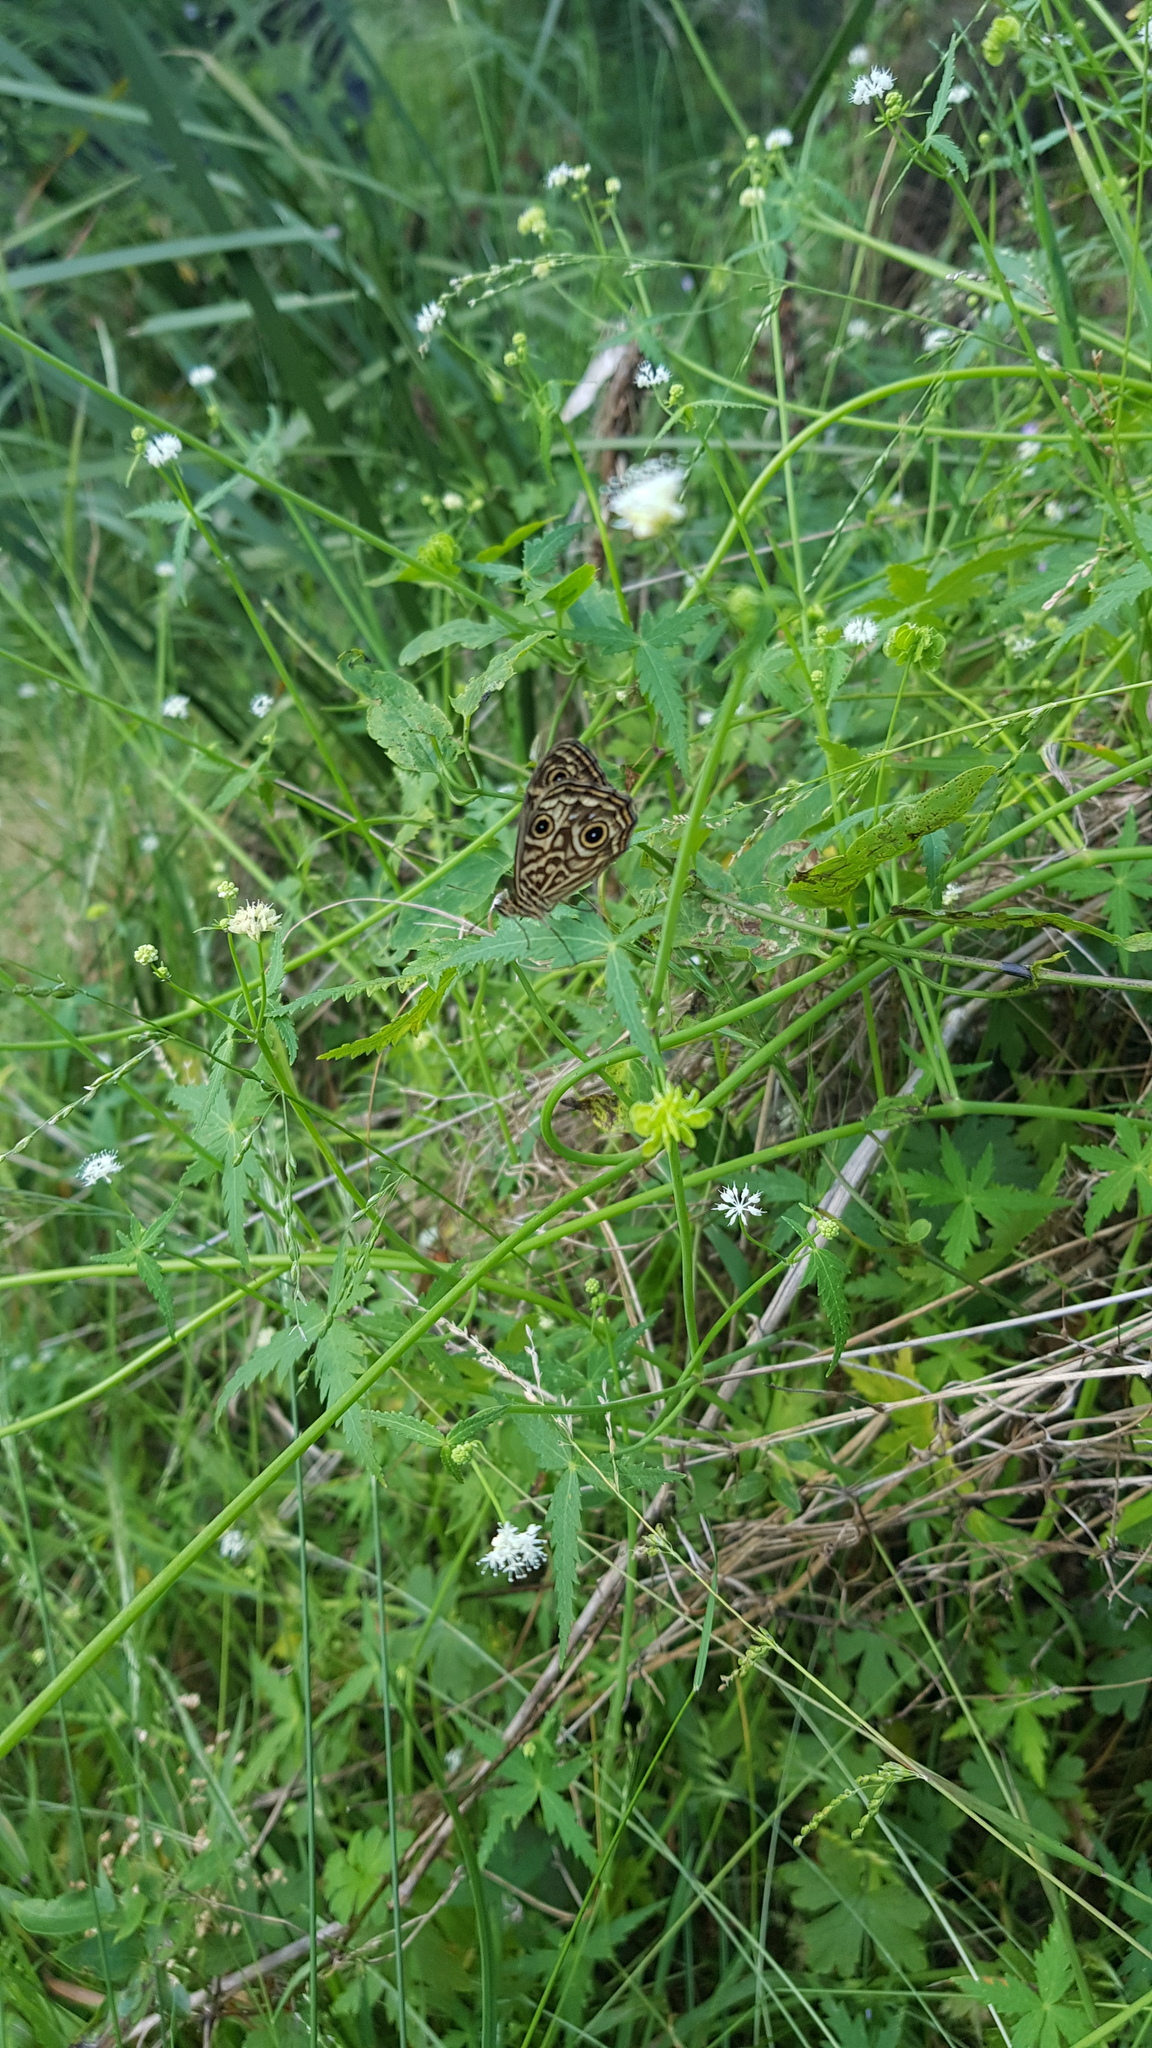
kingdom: Animalia
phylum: Arthropoda
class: Insecta
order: Lepidoptera
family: Nymphalidae
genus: Geitoneura
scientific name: Geitoneura acantha
